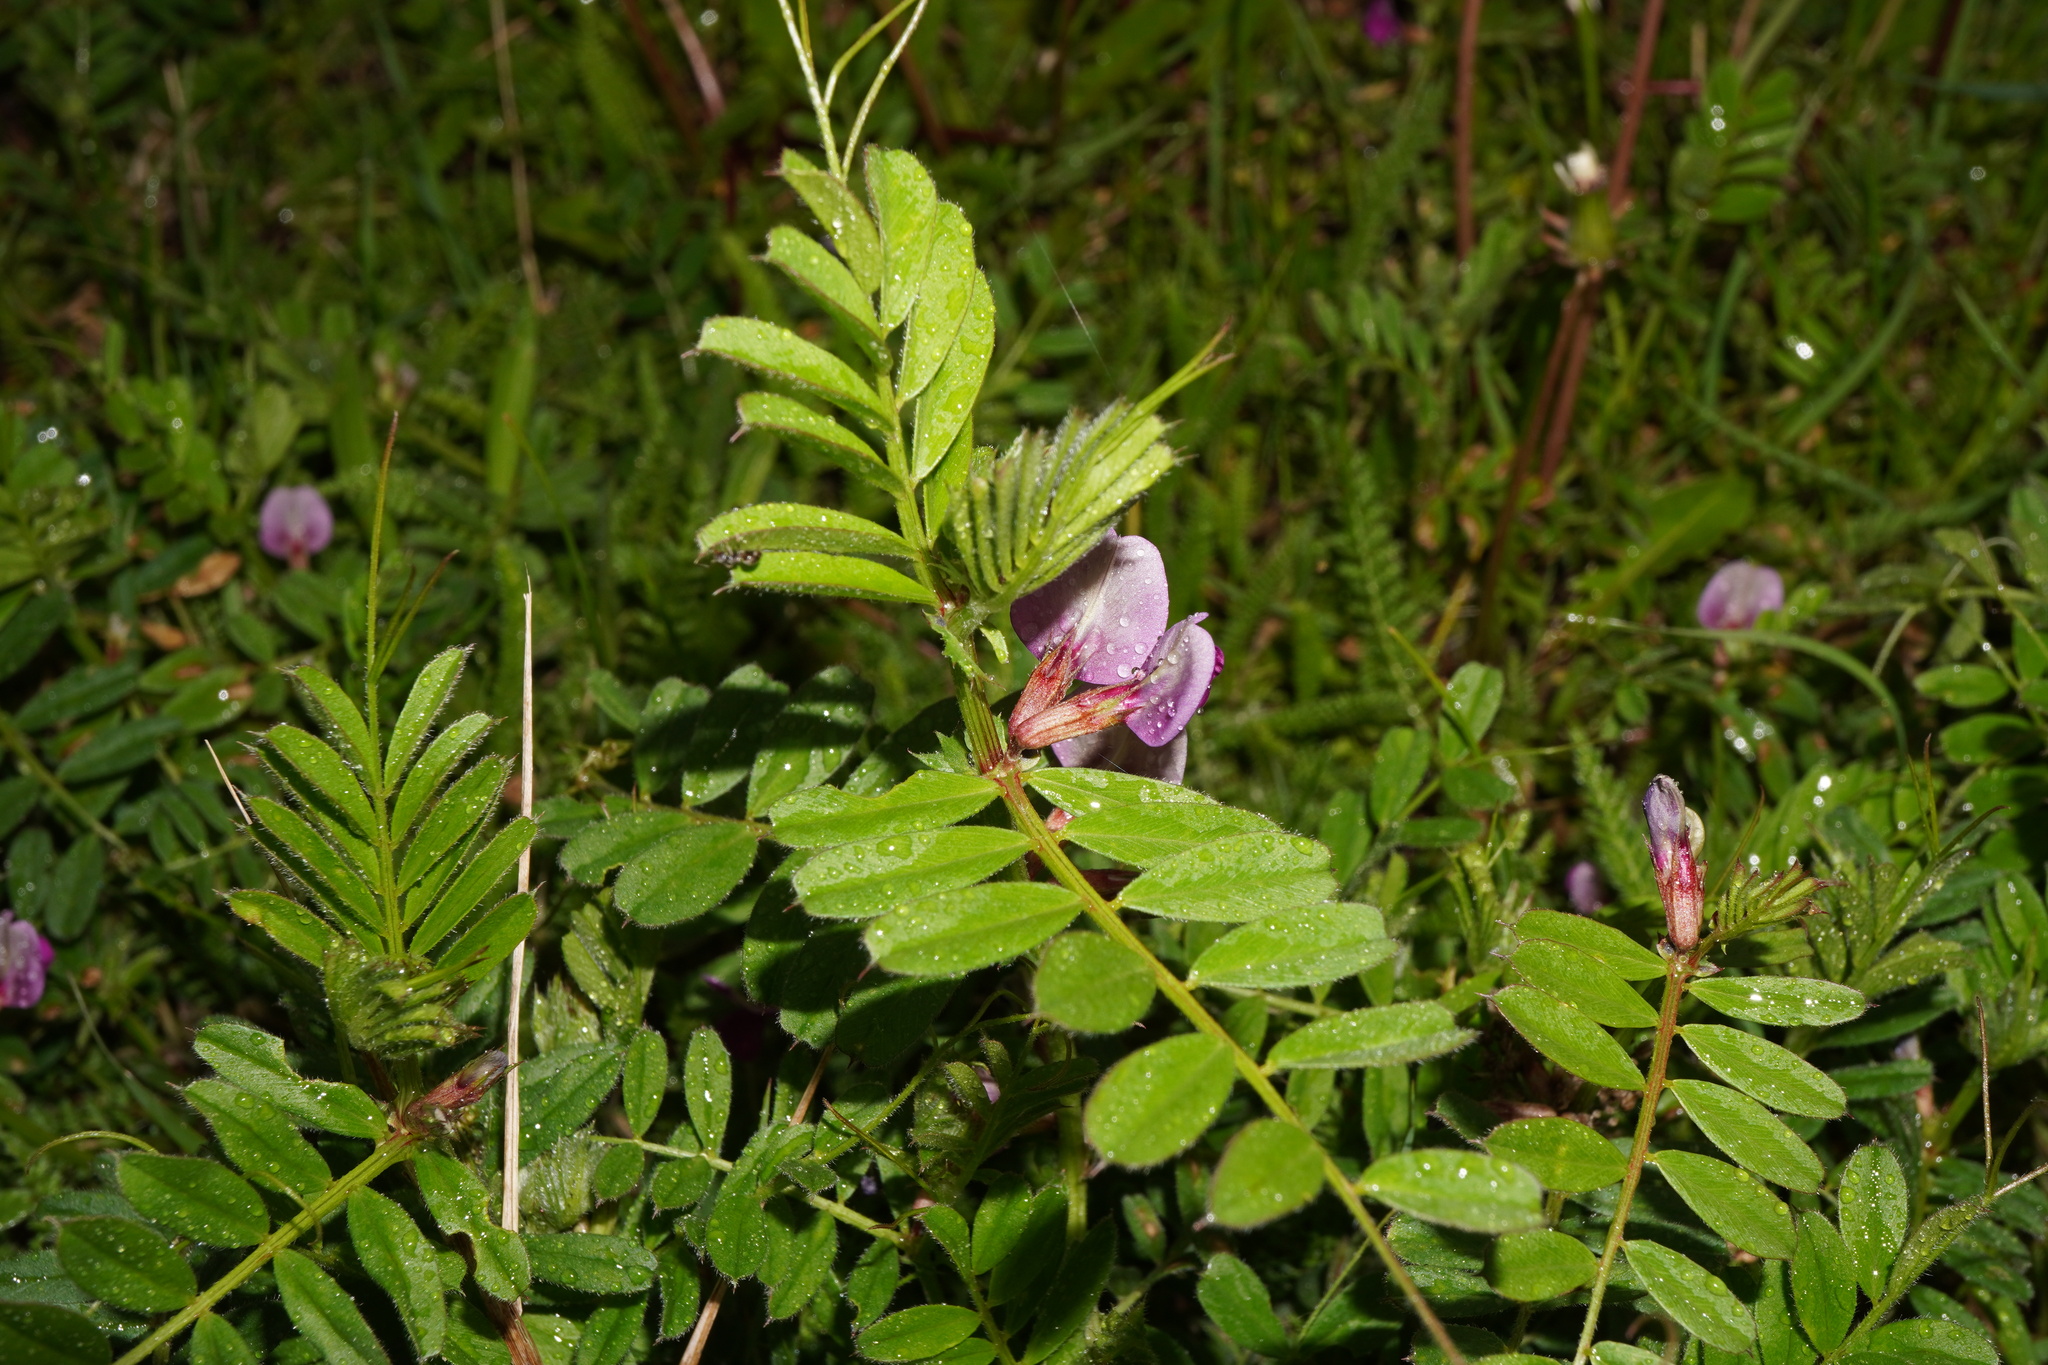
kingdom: Plantae
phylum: Tracheophyta
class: Magnoliopsida
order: Fabales
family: Fabaceae
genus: Vicia
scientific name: Vicia sativa
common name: Garden vetch
